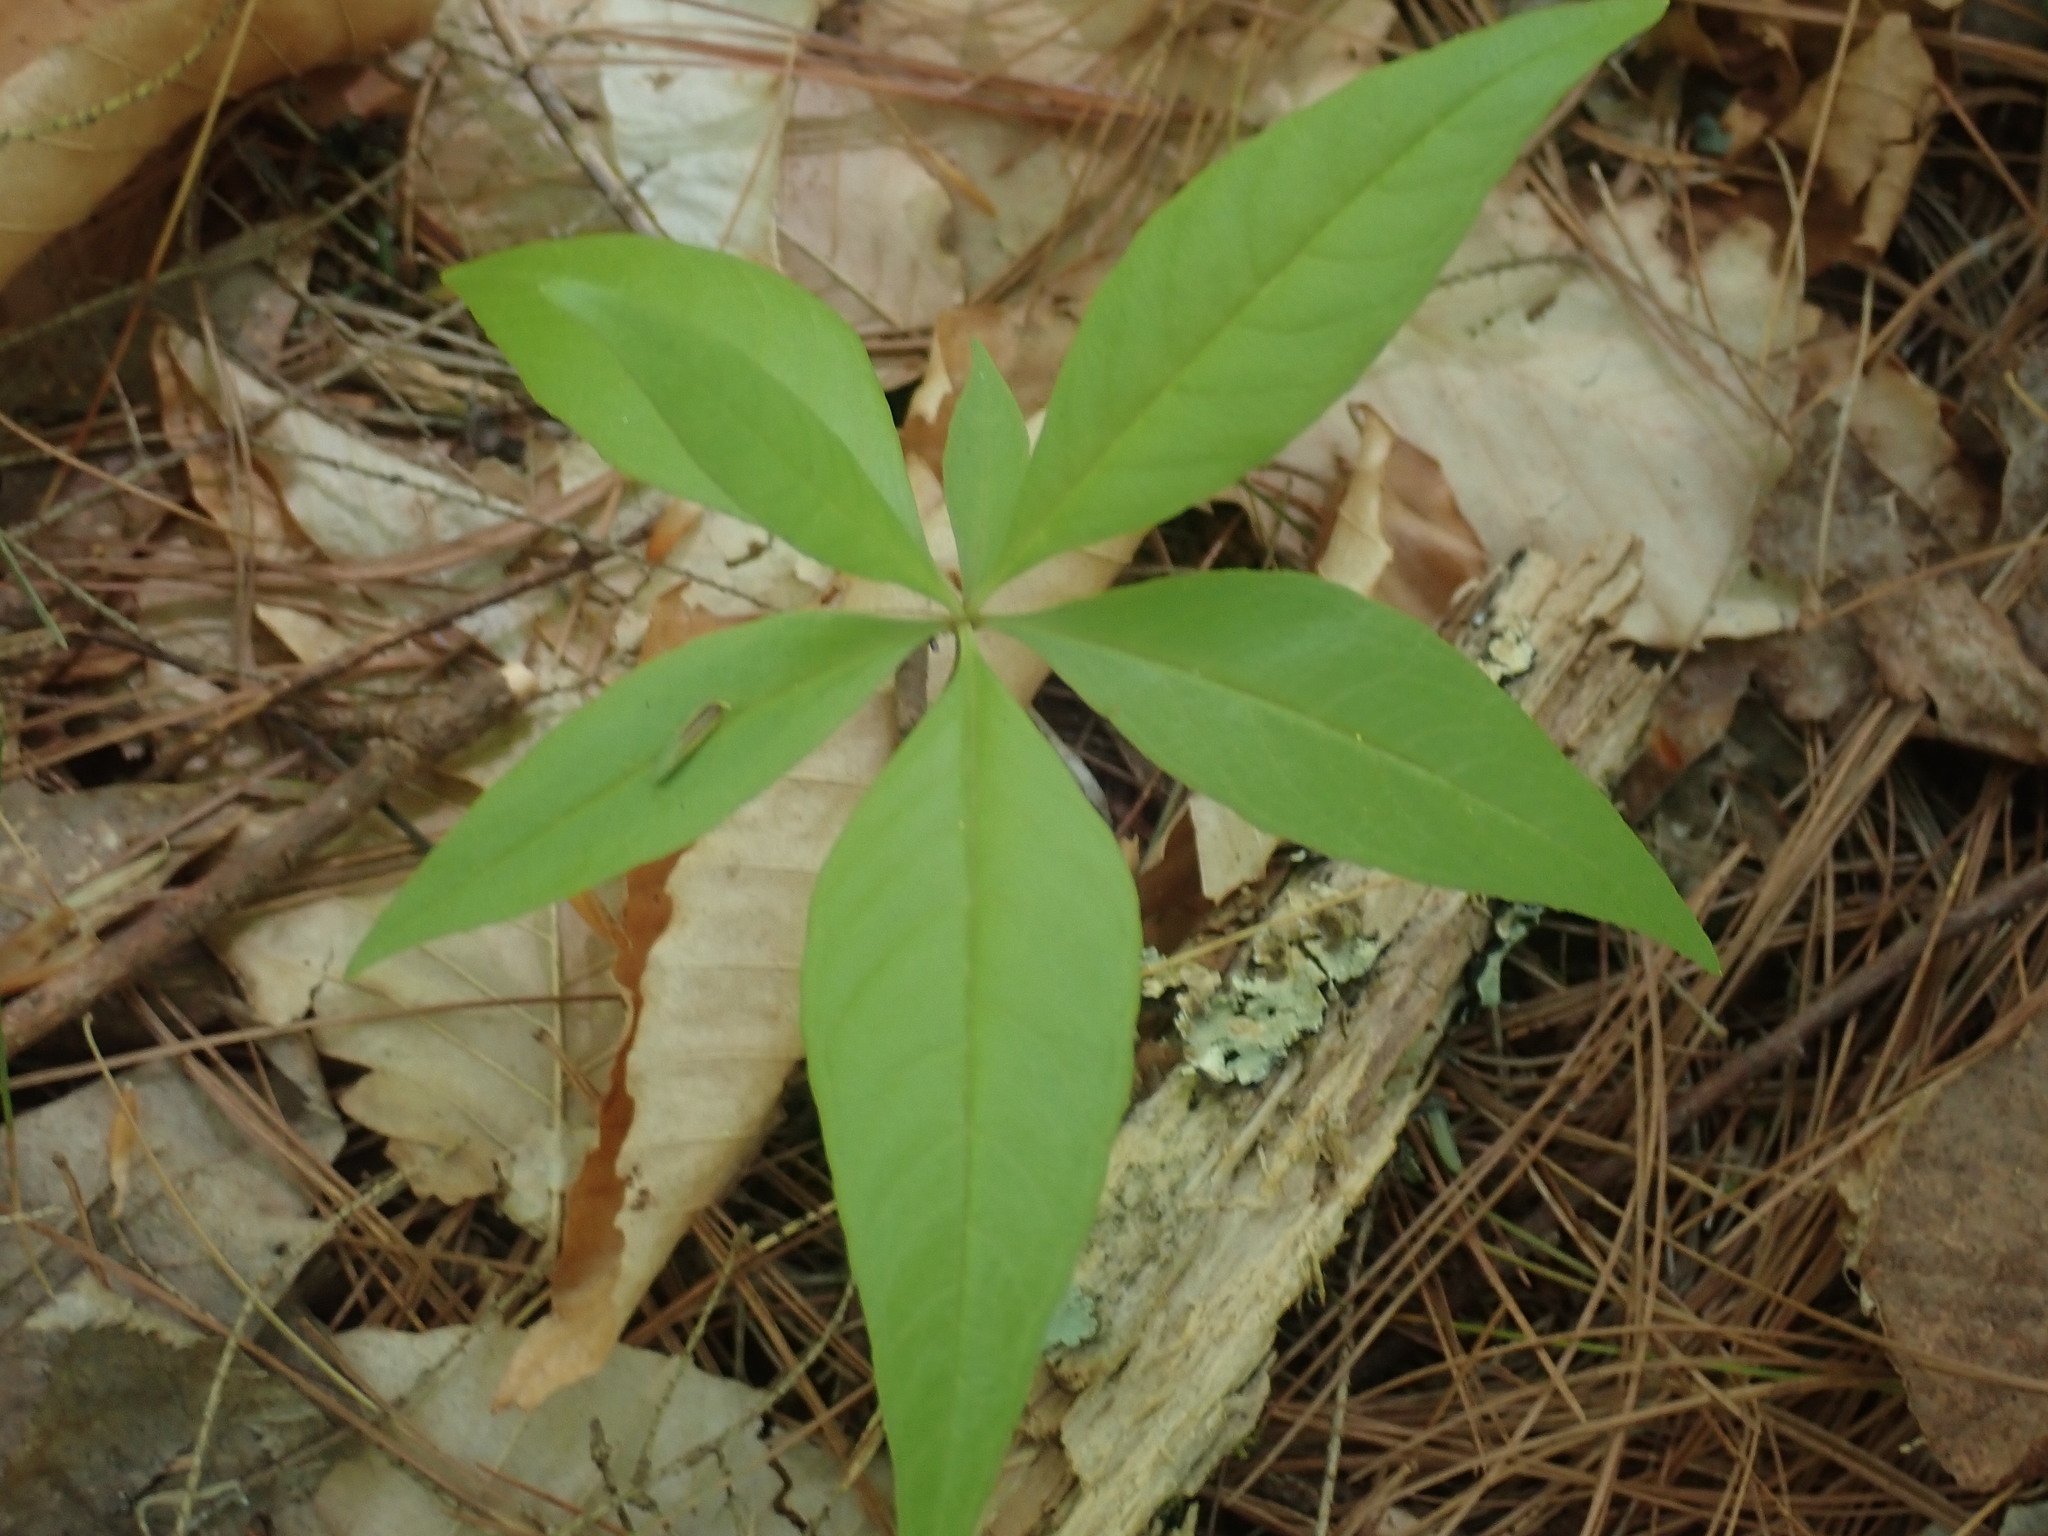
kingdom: Plantae
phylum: Tracheophyta
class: Magnoliopsida
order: Ericales
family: Primulaceae
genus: Lysimachia
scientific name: Lysimachia borealis
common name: American starflower
